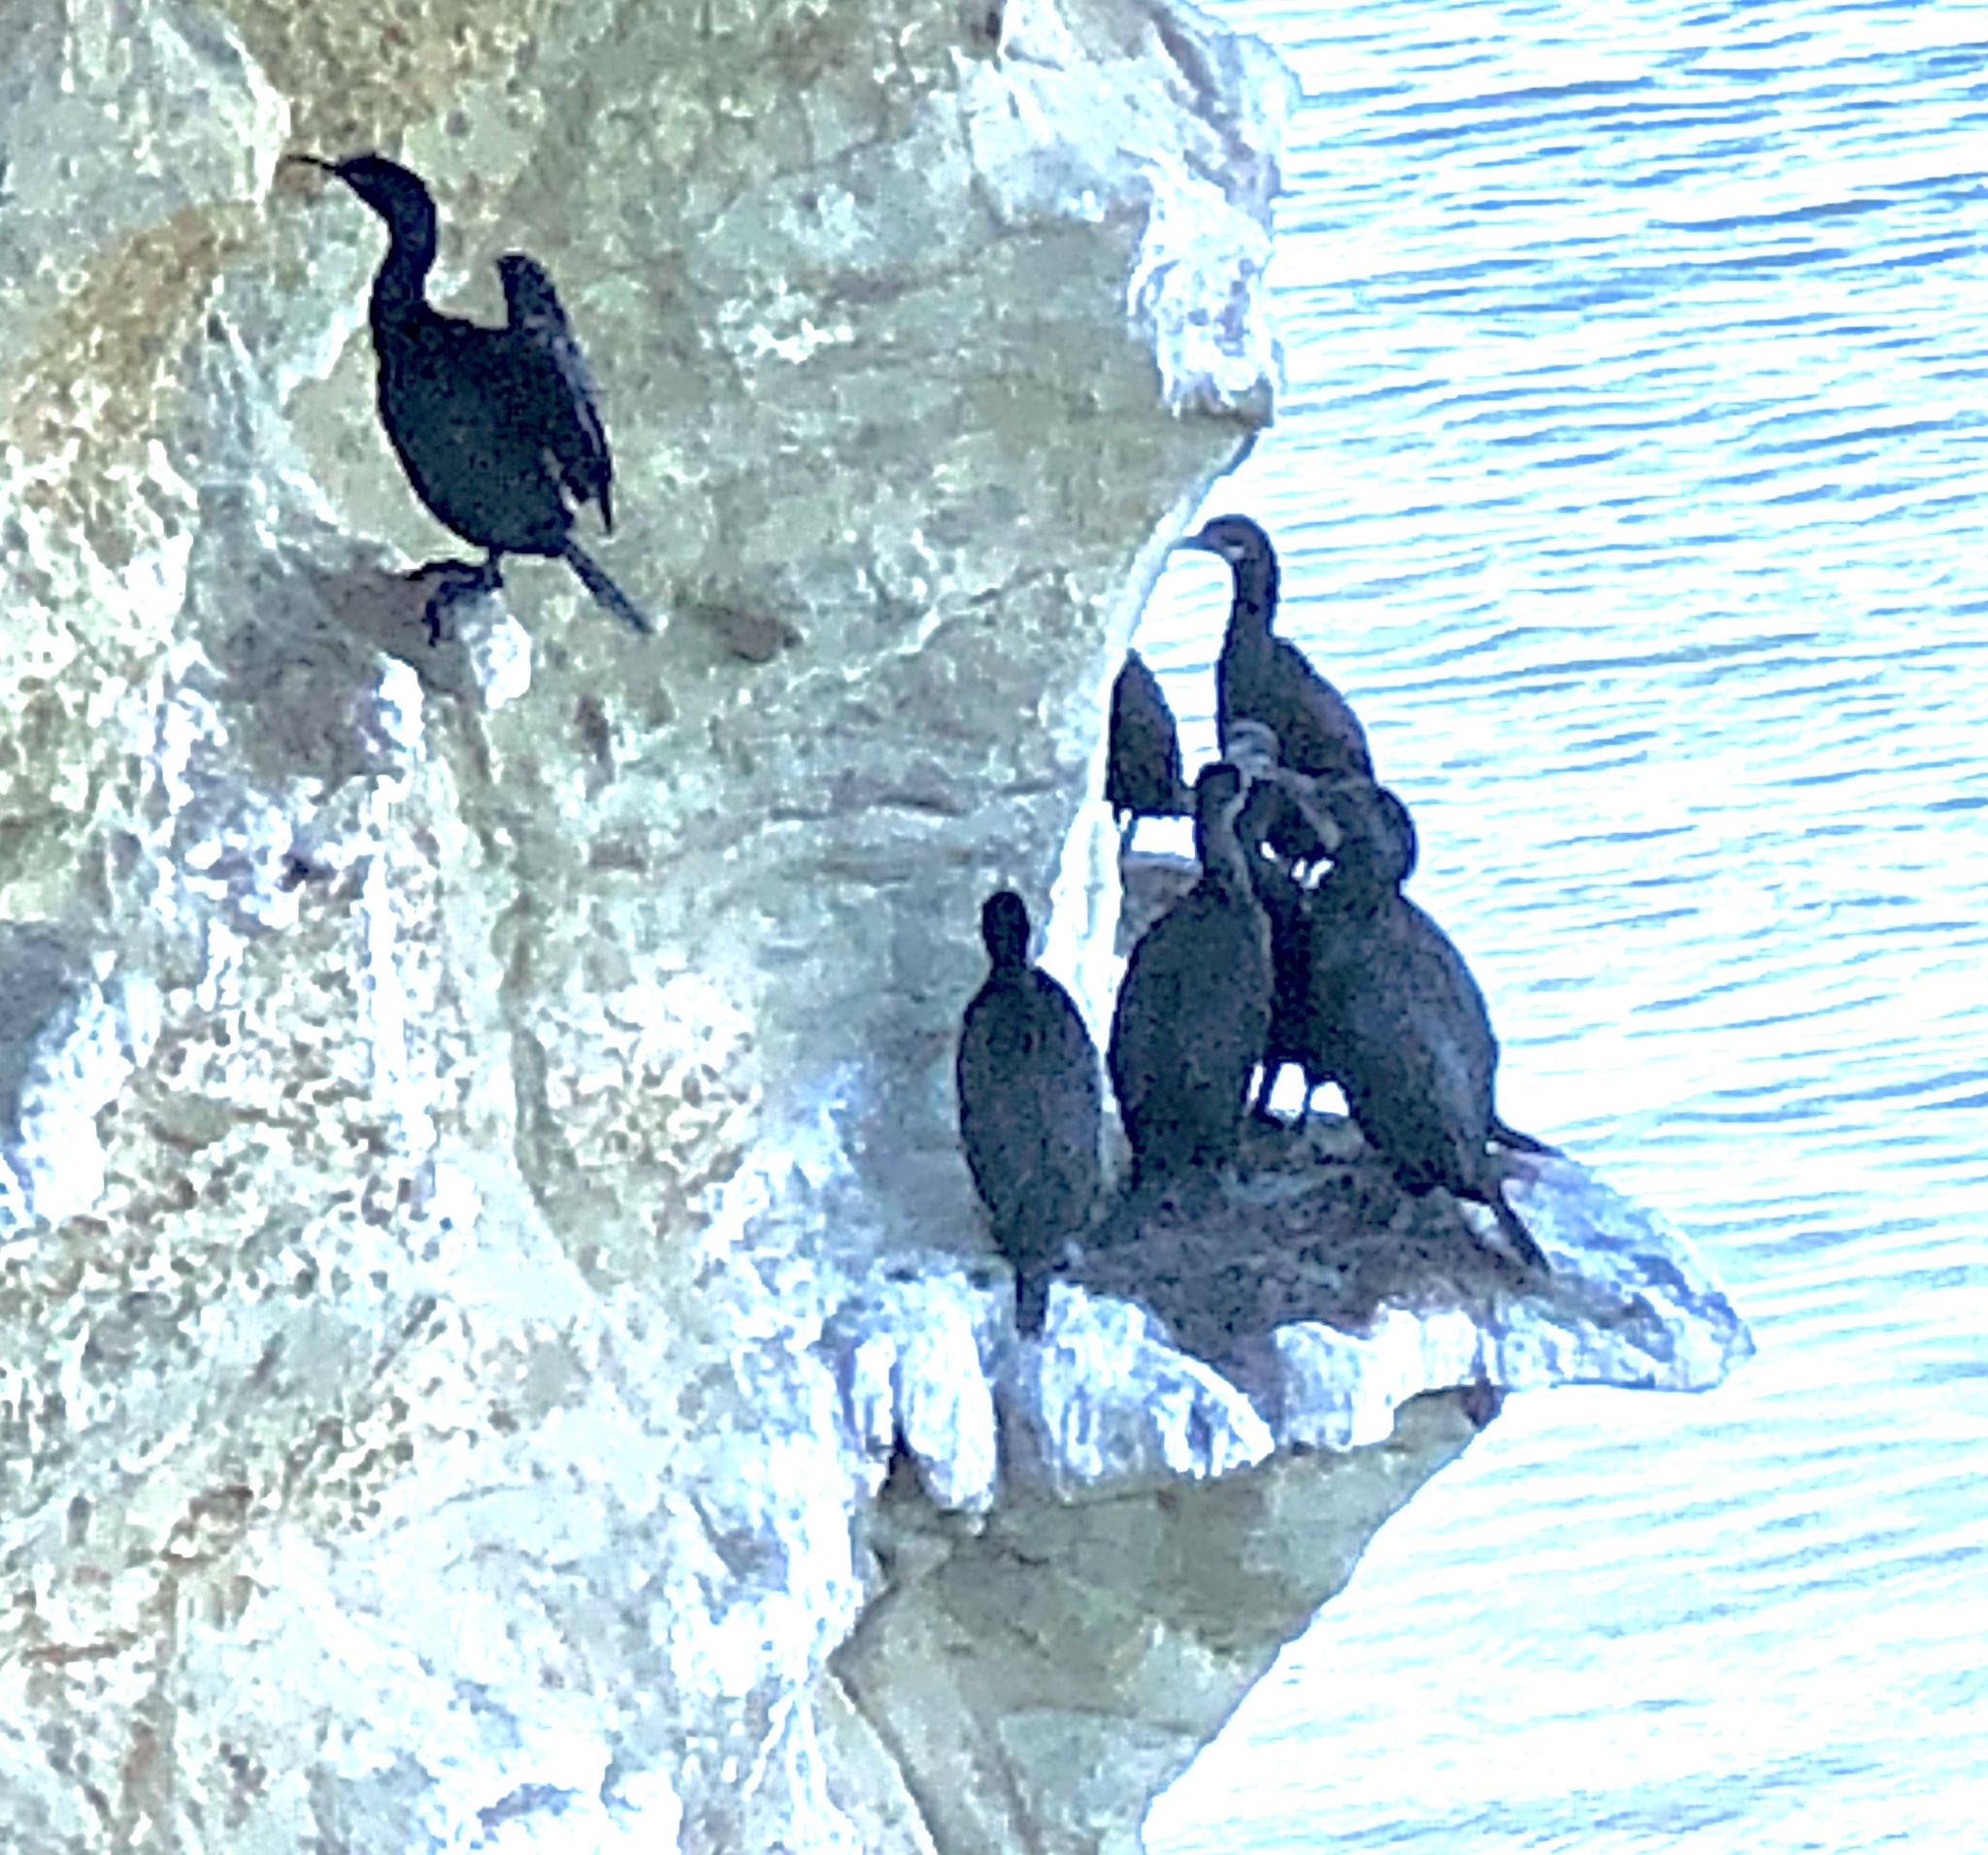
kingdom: Animalia
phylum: Chordata
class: Aves
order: Suliformes
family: Phalacrocoracidae
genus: Urile
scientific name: Urile penicillatus
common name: Brandt's cormorant
